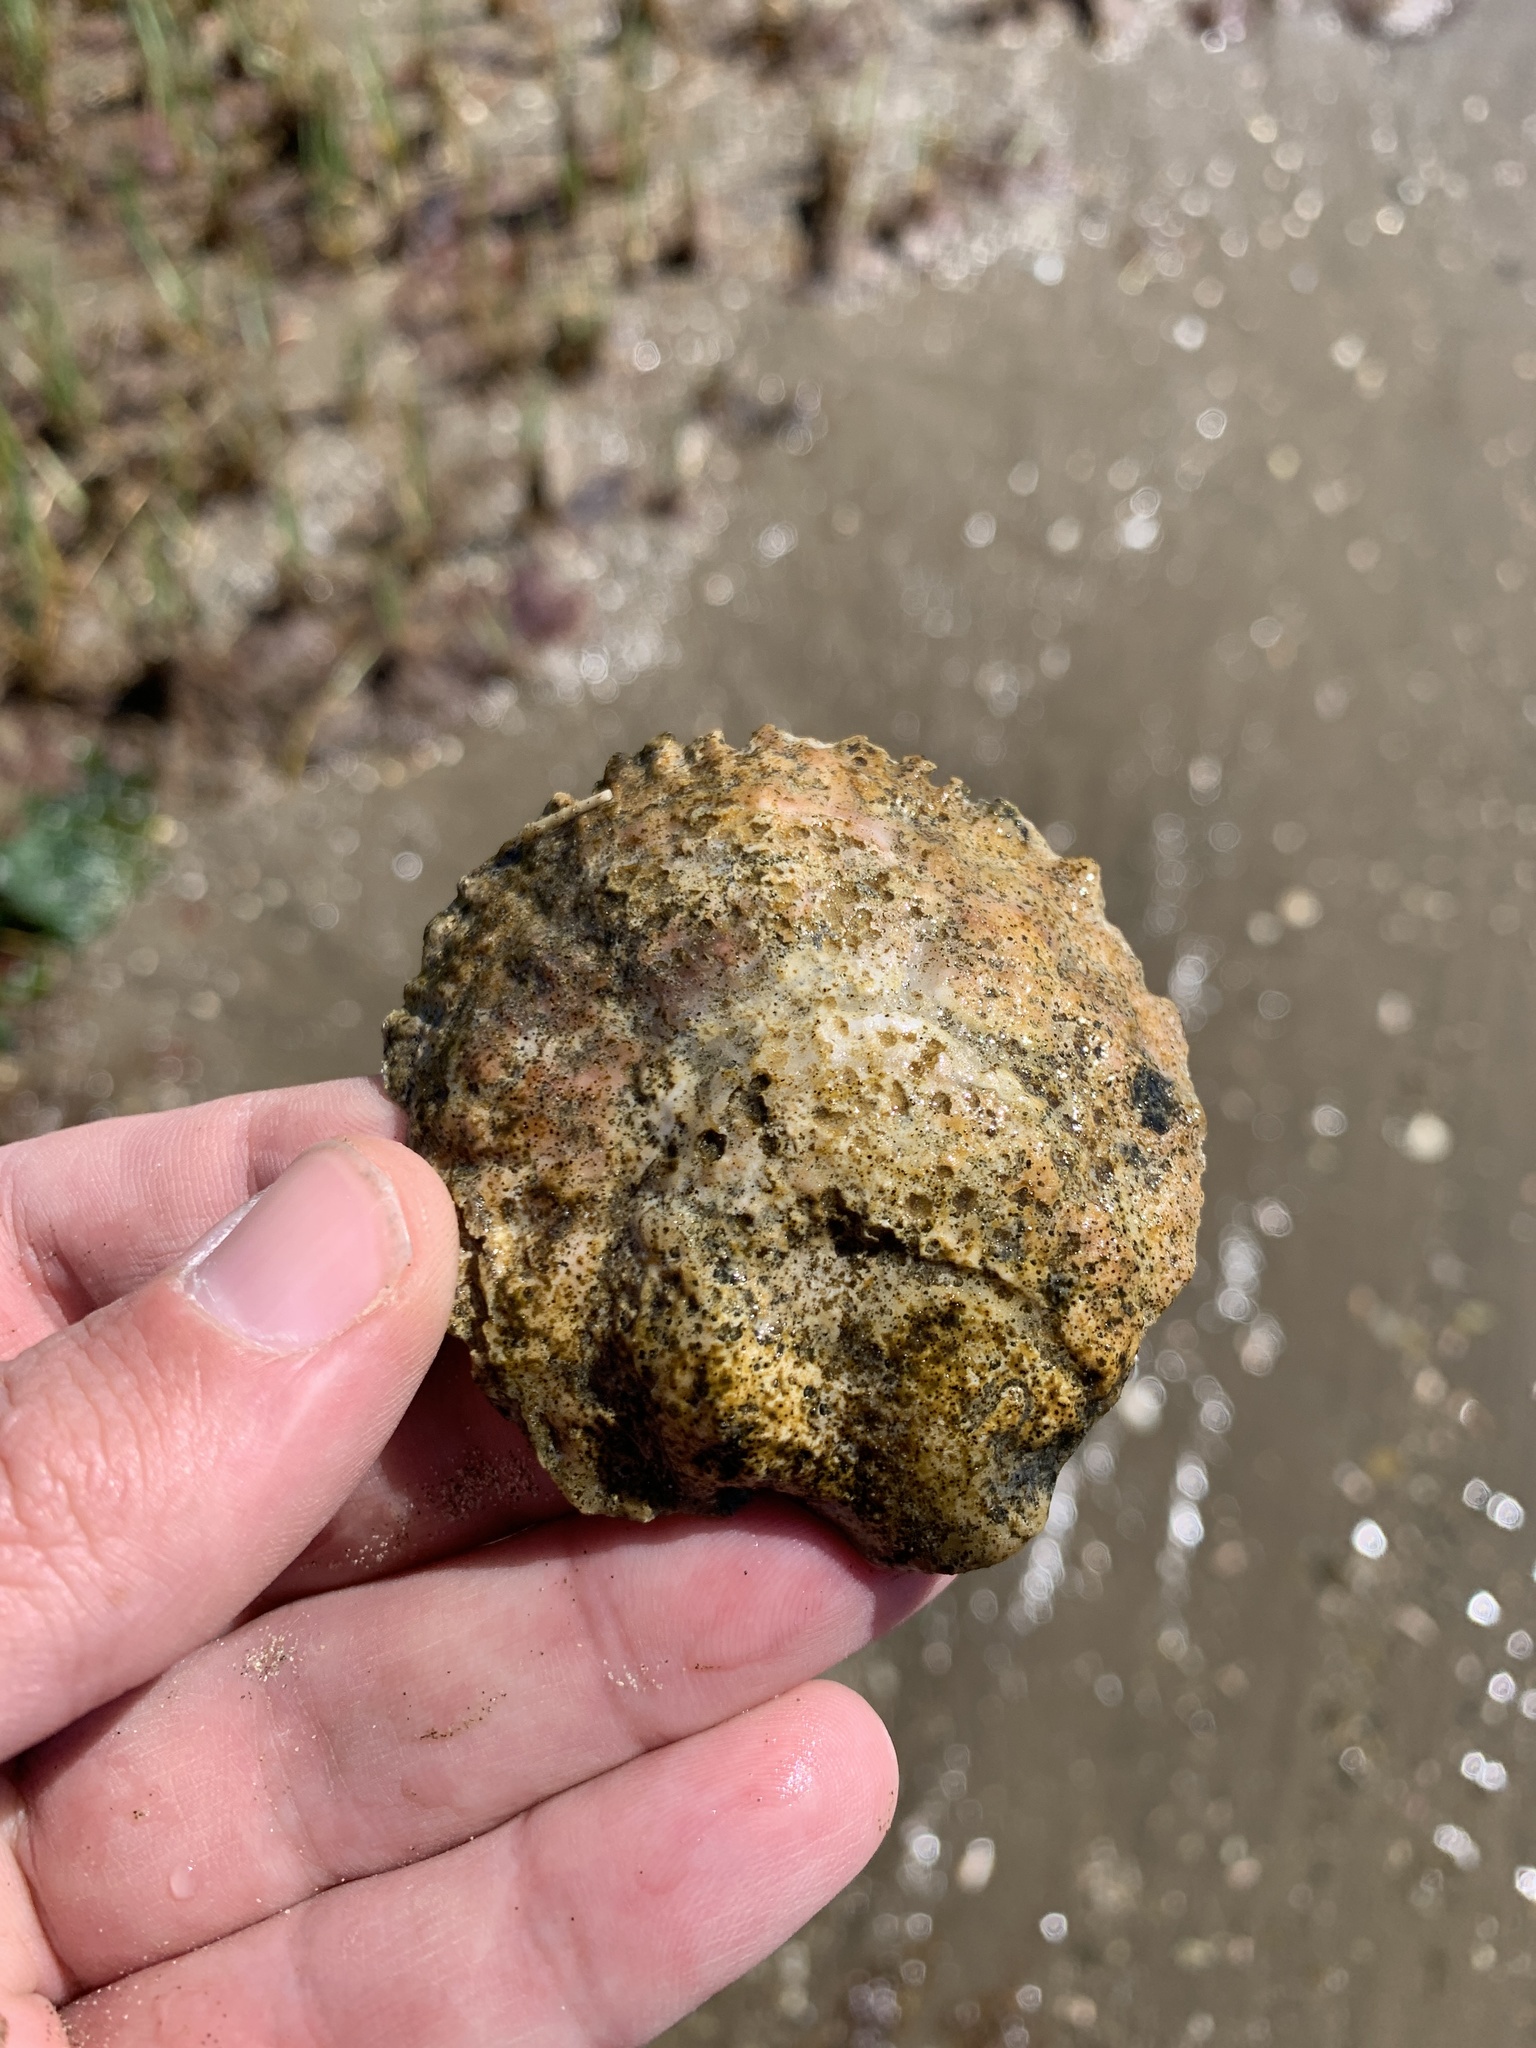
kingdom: Animalia
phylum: Mollusca
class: Bivalvia
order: Ostreida
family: Ostreidae
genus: Ostrea
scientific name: Ostrea puelchana
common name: Argentine flat oyster
